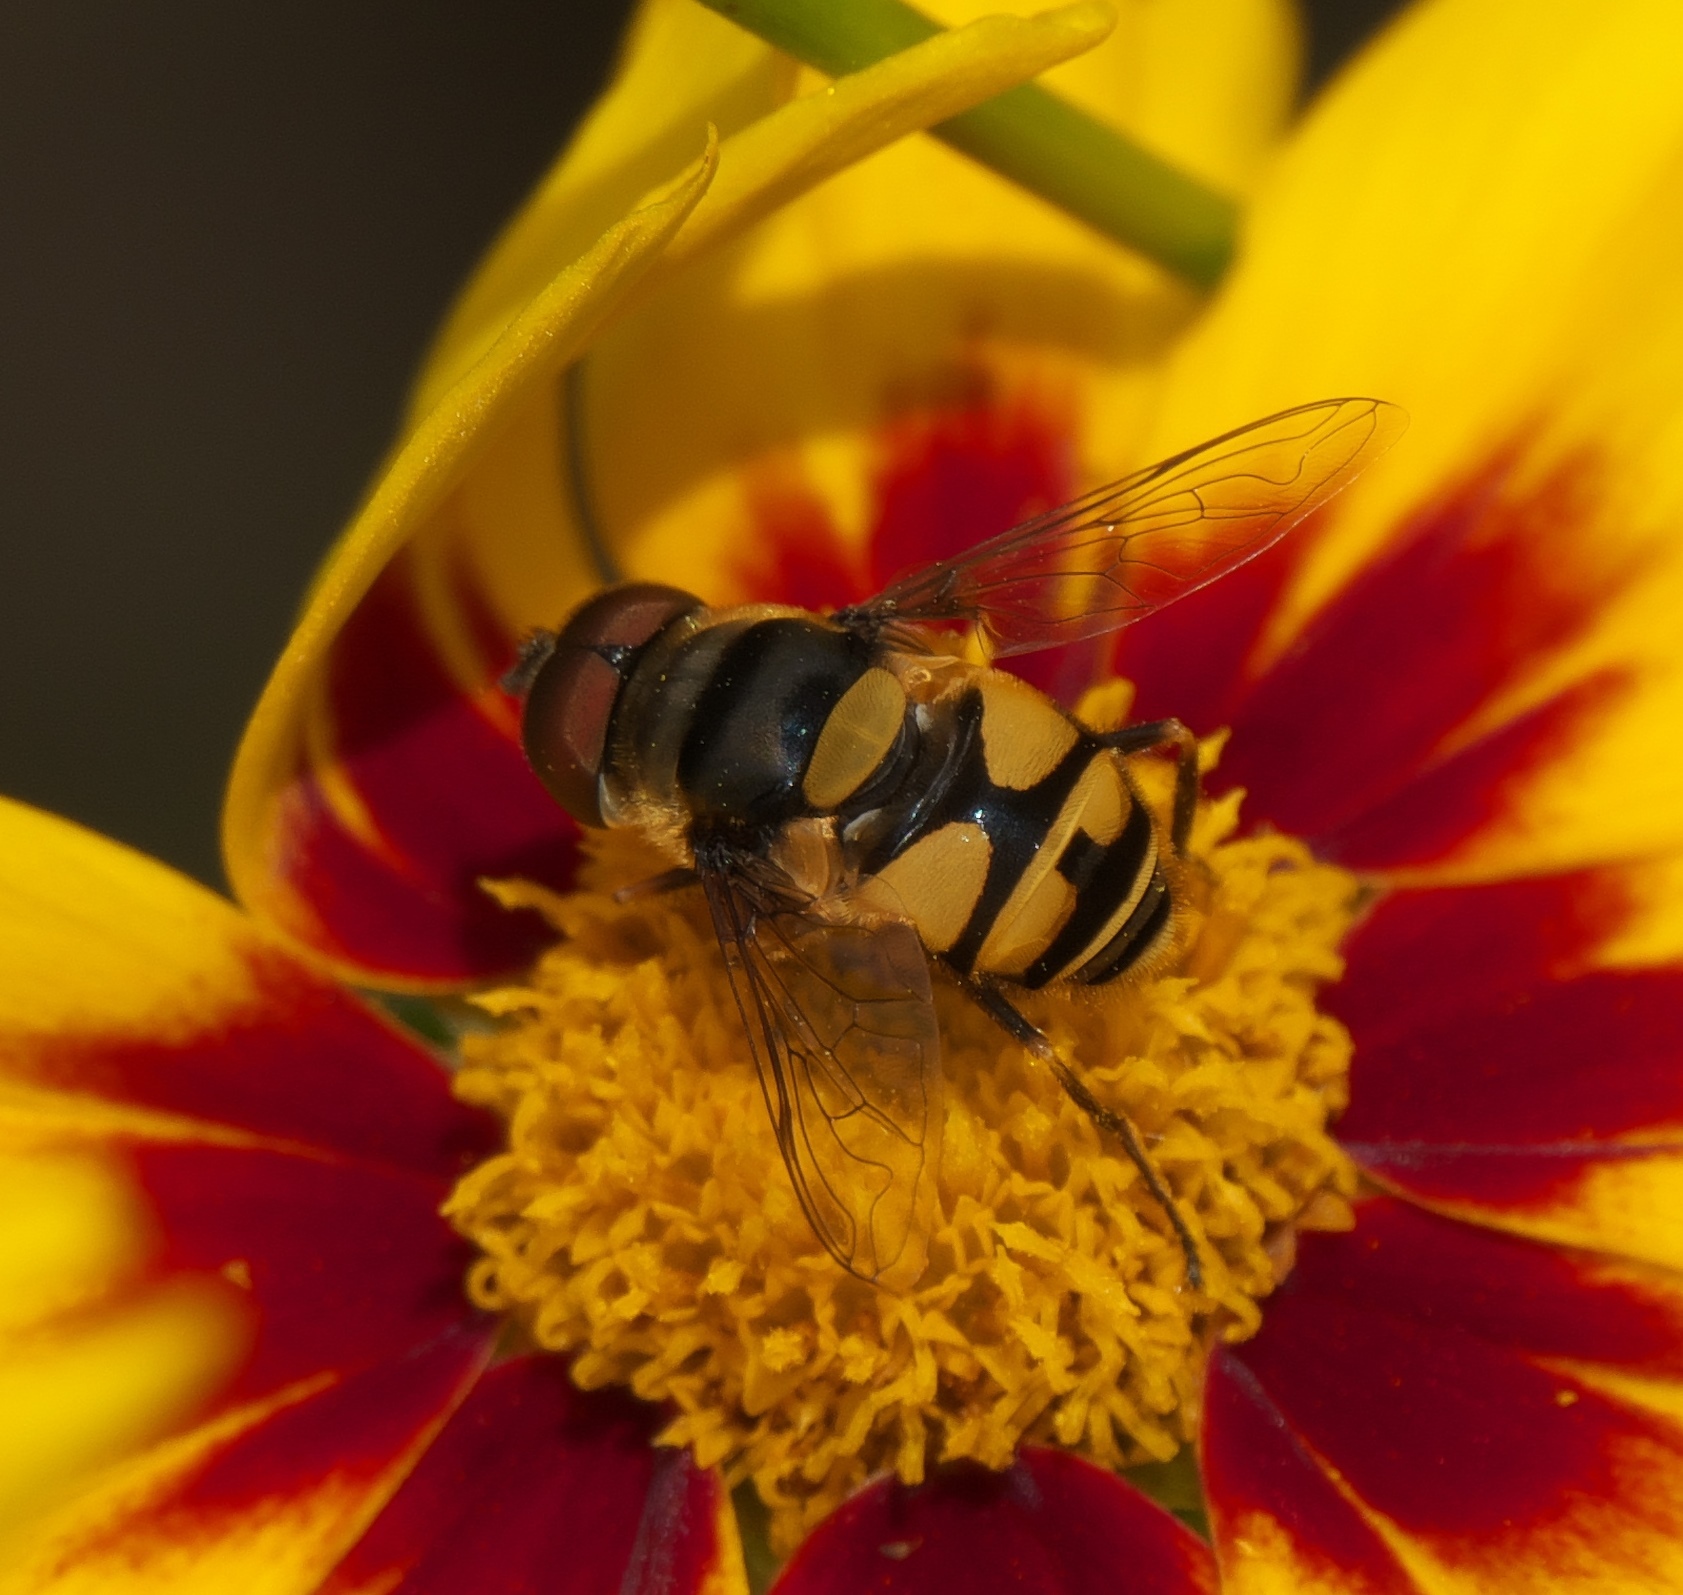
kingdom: Animalia
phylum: Arthropoda
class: Insecta
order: Diptera
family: Syrphidae
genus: Eristalis
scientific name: Eristalis transversa
